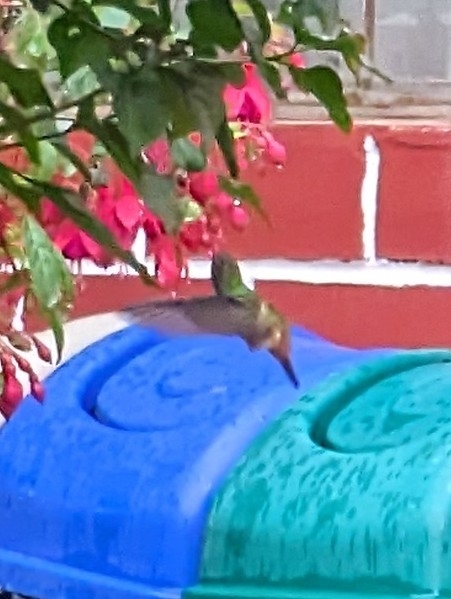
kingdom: Animalia
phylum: Chordata
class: Aves
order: Apodiformes
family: Trochilidae
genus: Amazilia
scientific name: Amazilia tzacatl
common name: Rufous-tailed hummingbird
